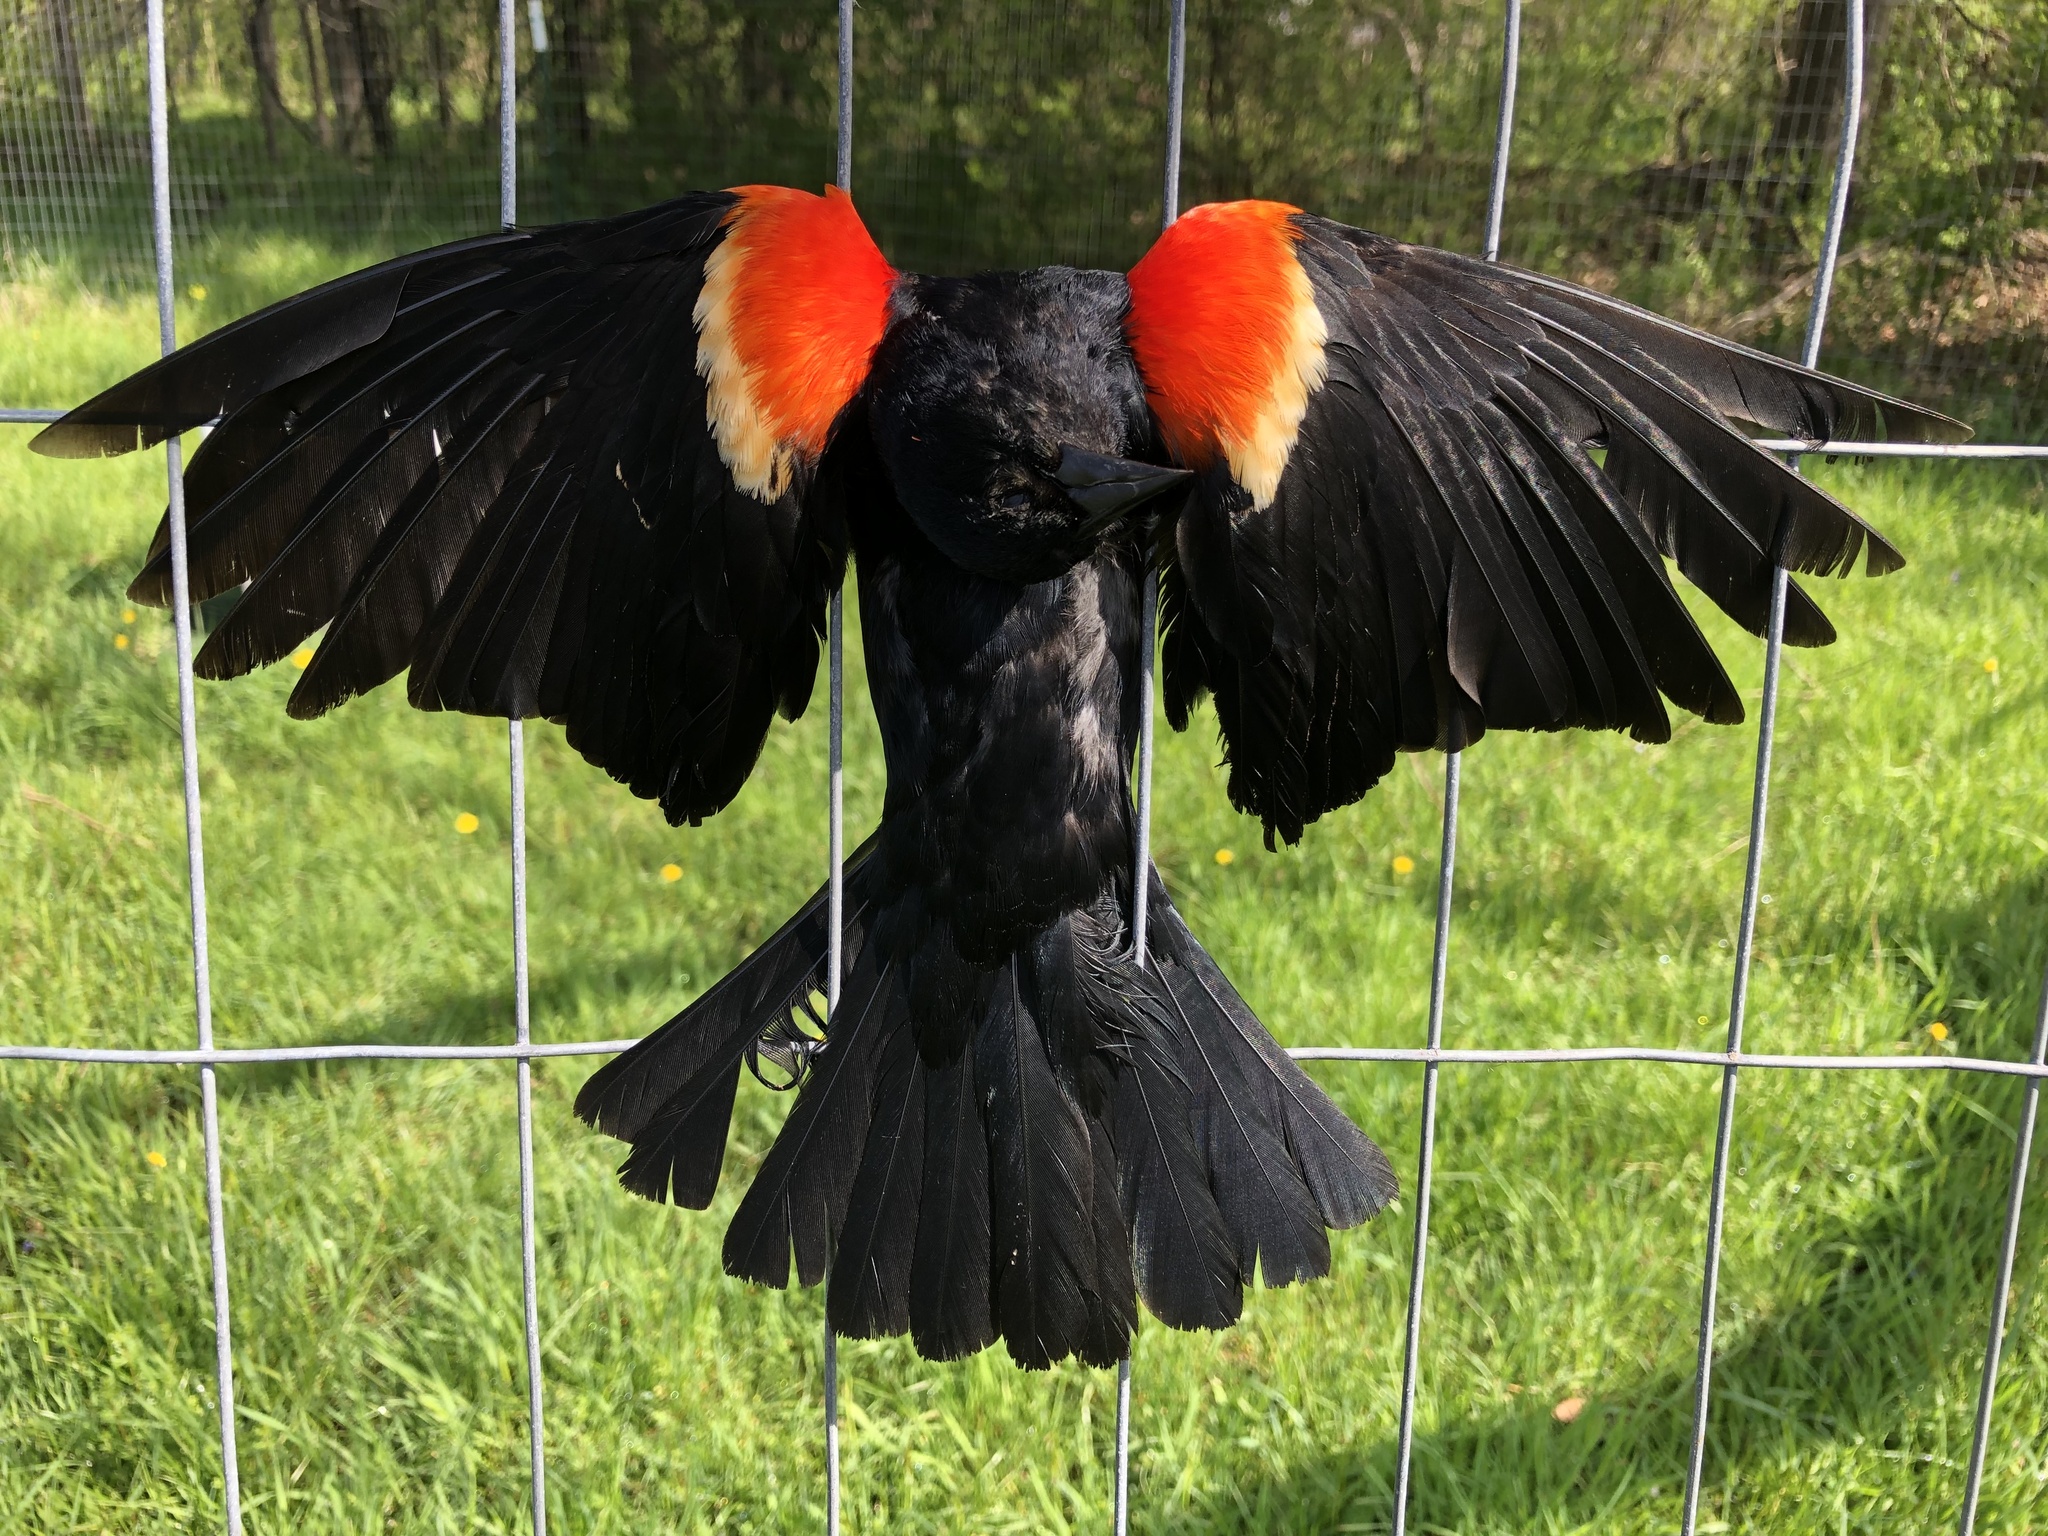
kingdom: Animalia
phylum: Chordata
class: Aves
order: Passeriformes
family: Icteridae
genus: Agelaius
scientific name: Agelaius phoeniceus
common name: Red-winged blackbird
